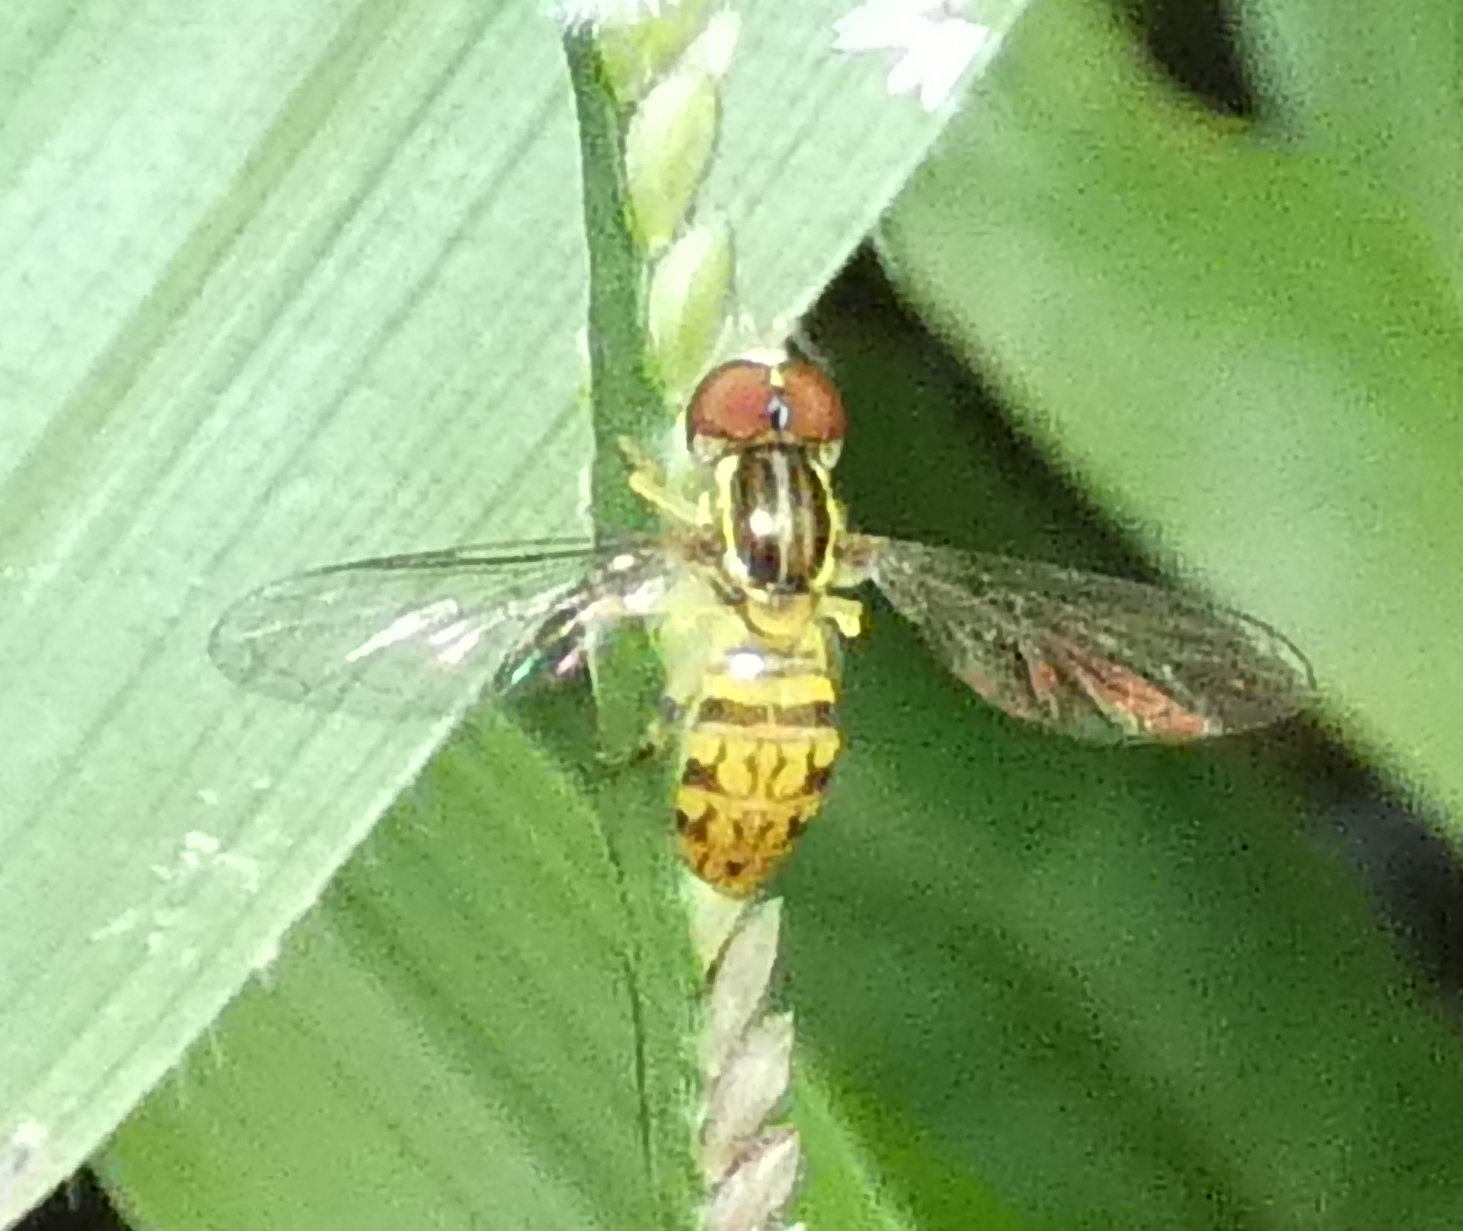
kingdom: Animalia
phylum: Arthropoda
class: Insecta
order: Diptera
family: Syrphidae
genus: Toxomerus
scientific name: Toxomerus pictus
